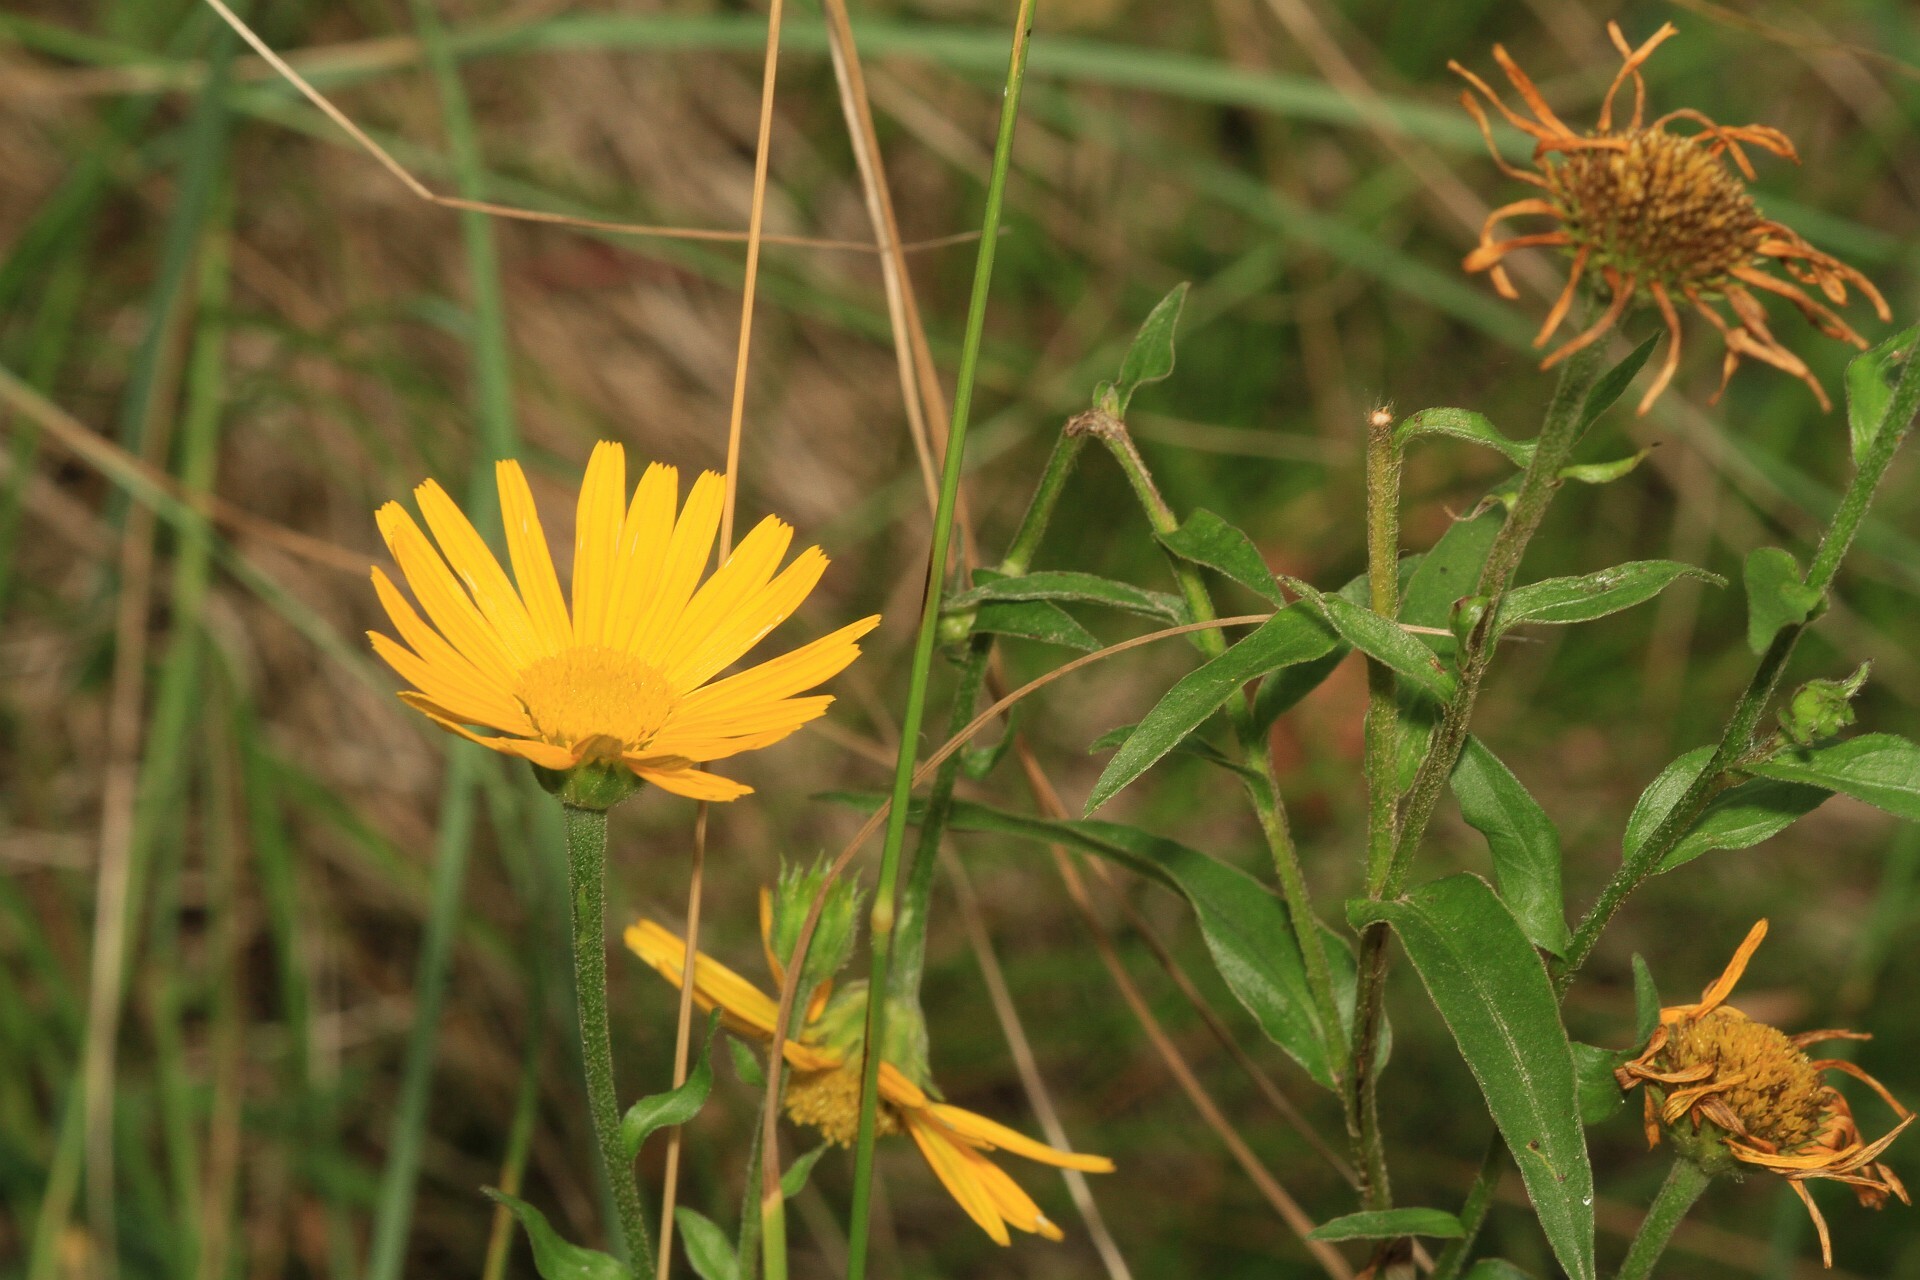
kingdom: Plantae
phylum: Tracheophyta
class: Magnoliopsida
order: Asterales
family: Asteraceae
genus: Buphthalmum
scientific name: Buphthalmum salicifolium
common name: Willow-leaved yellow-oxeye
